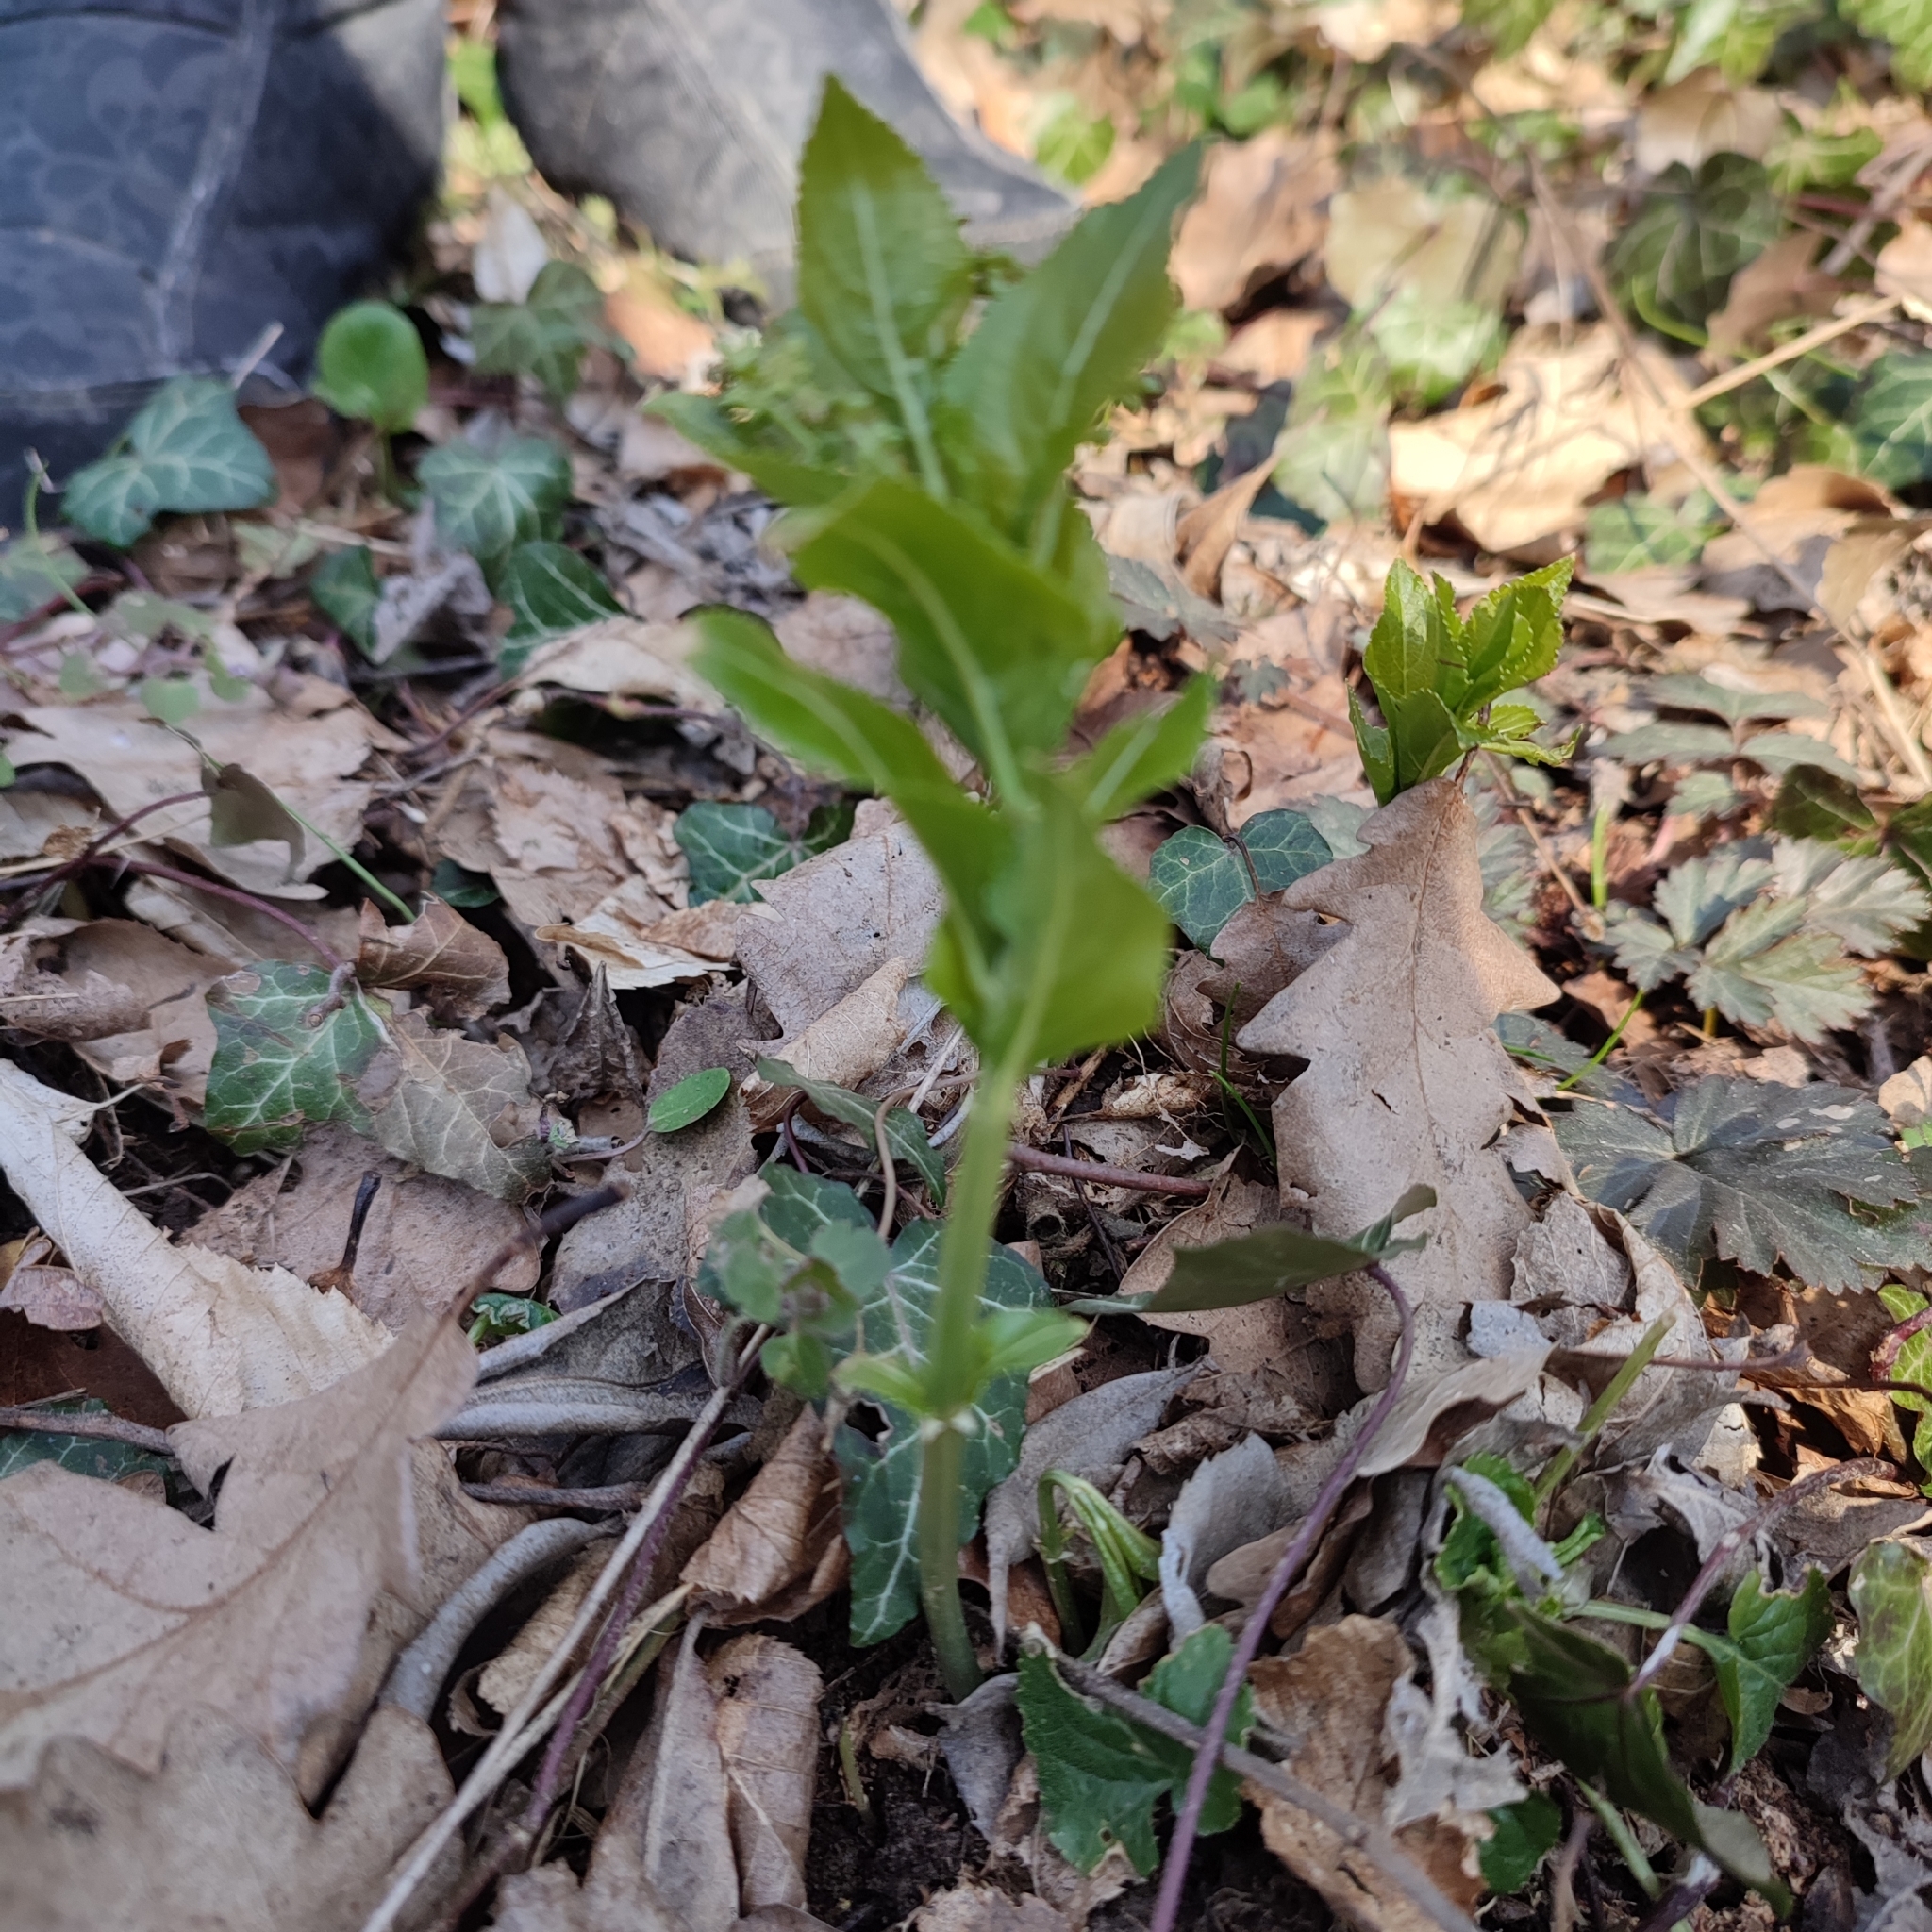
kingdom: Plantae
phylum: Tracheophyta
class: Magnoliopsida
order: Malpighiales
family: Euphorbiaceae
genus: Mercurialis
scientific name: Mercurialis perennis
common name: Dog mercury
